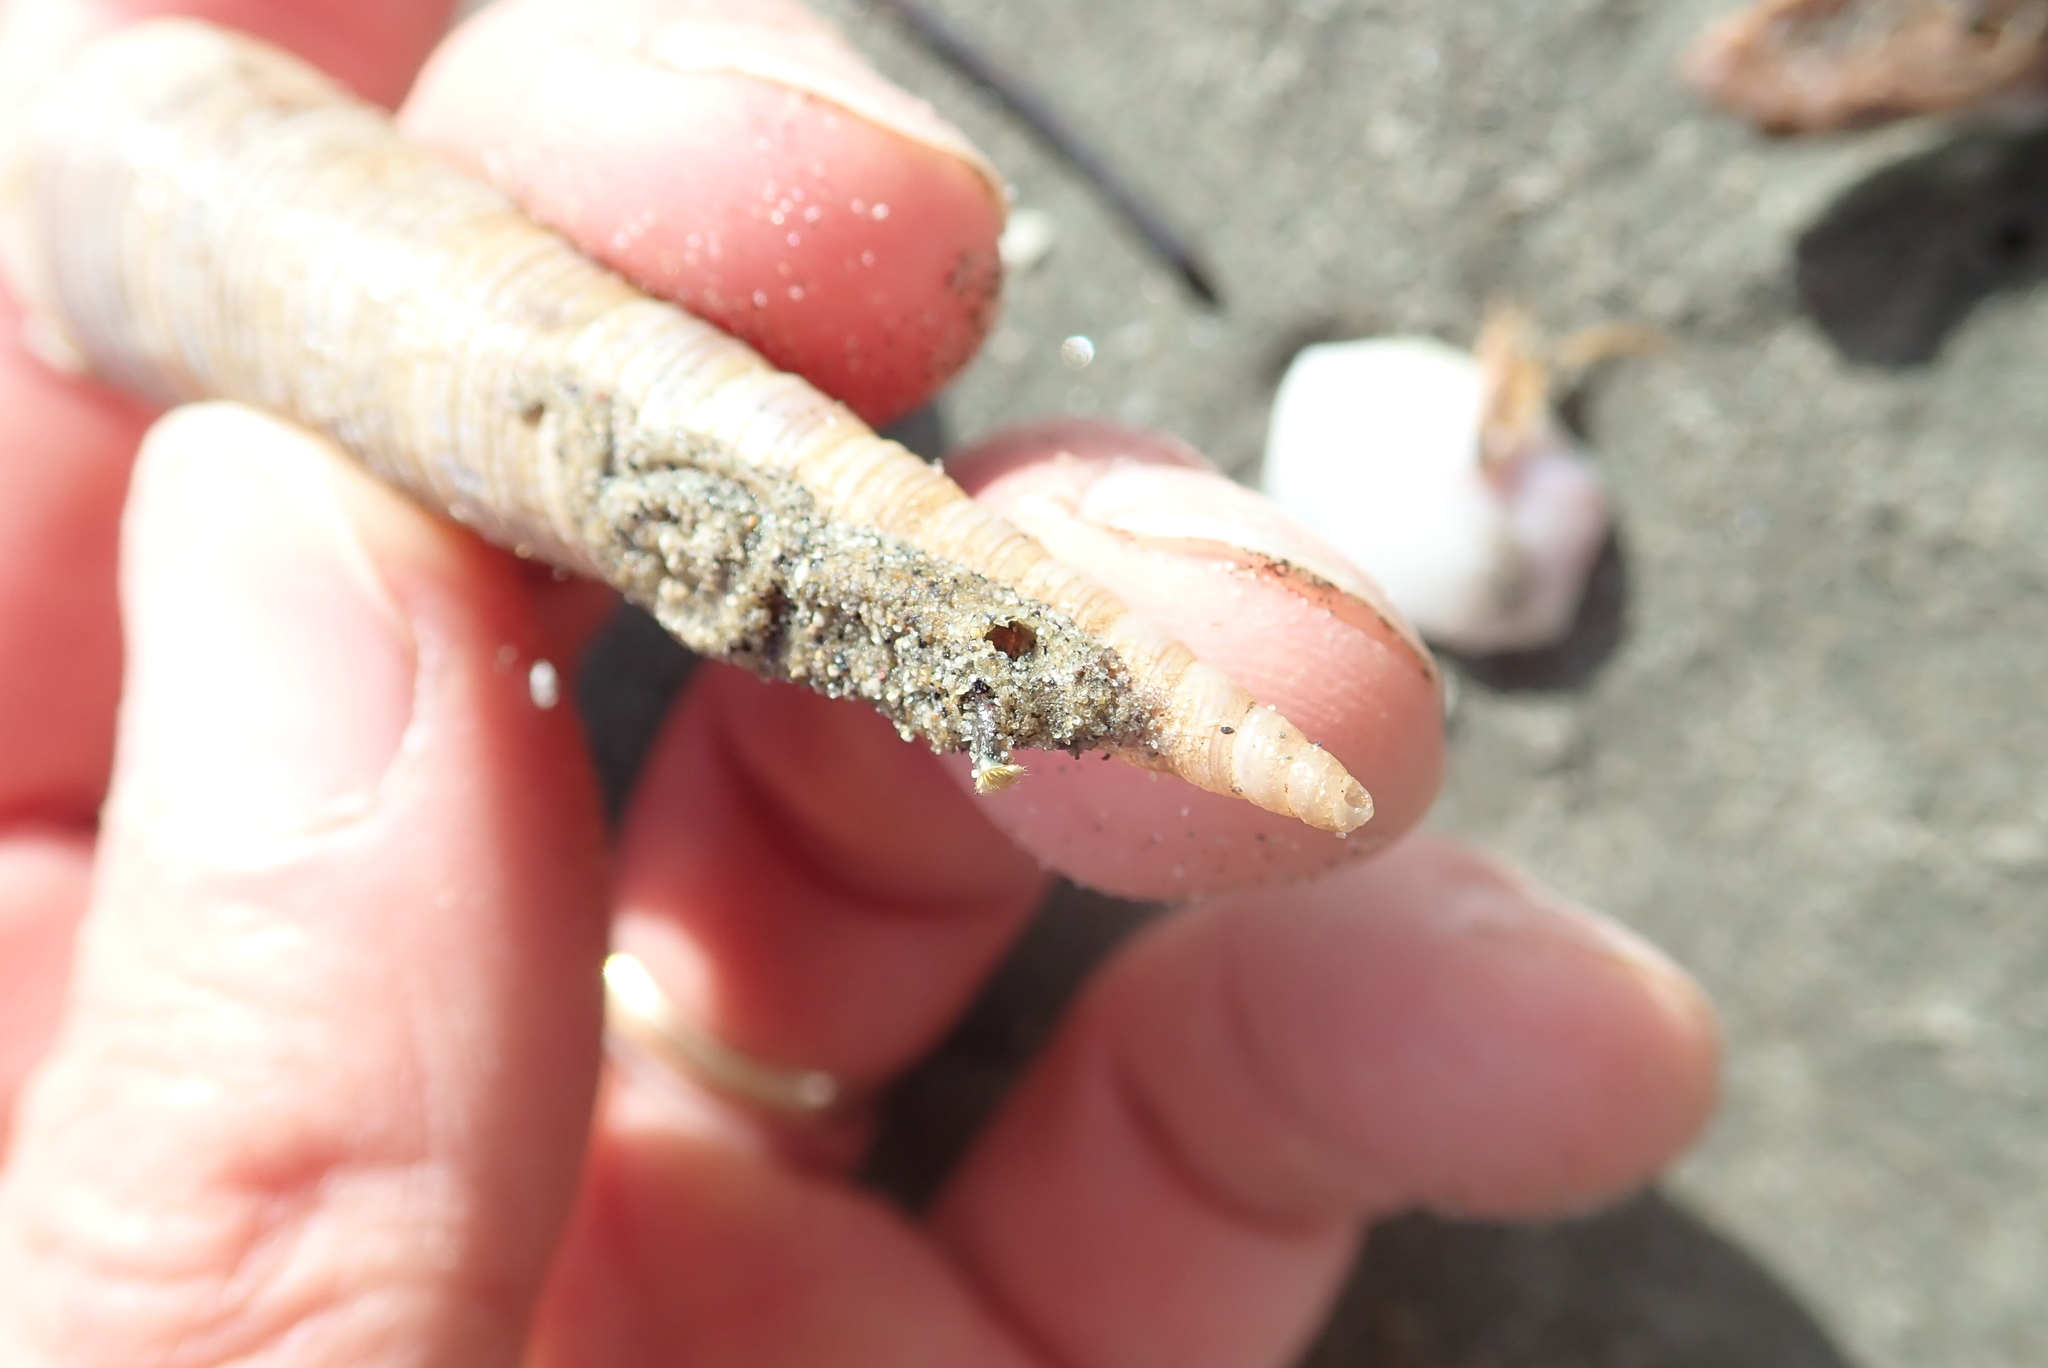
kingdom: Animalia
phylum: Mollusca
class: Gastropoda
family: Turritellidae
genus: Zeacolpus
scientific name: Zeacolpus vittatus
